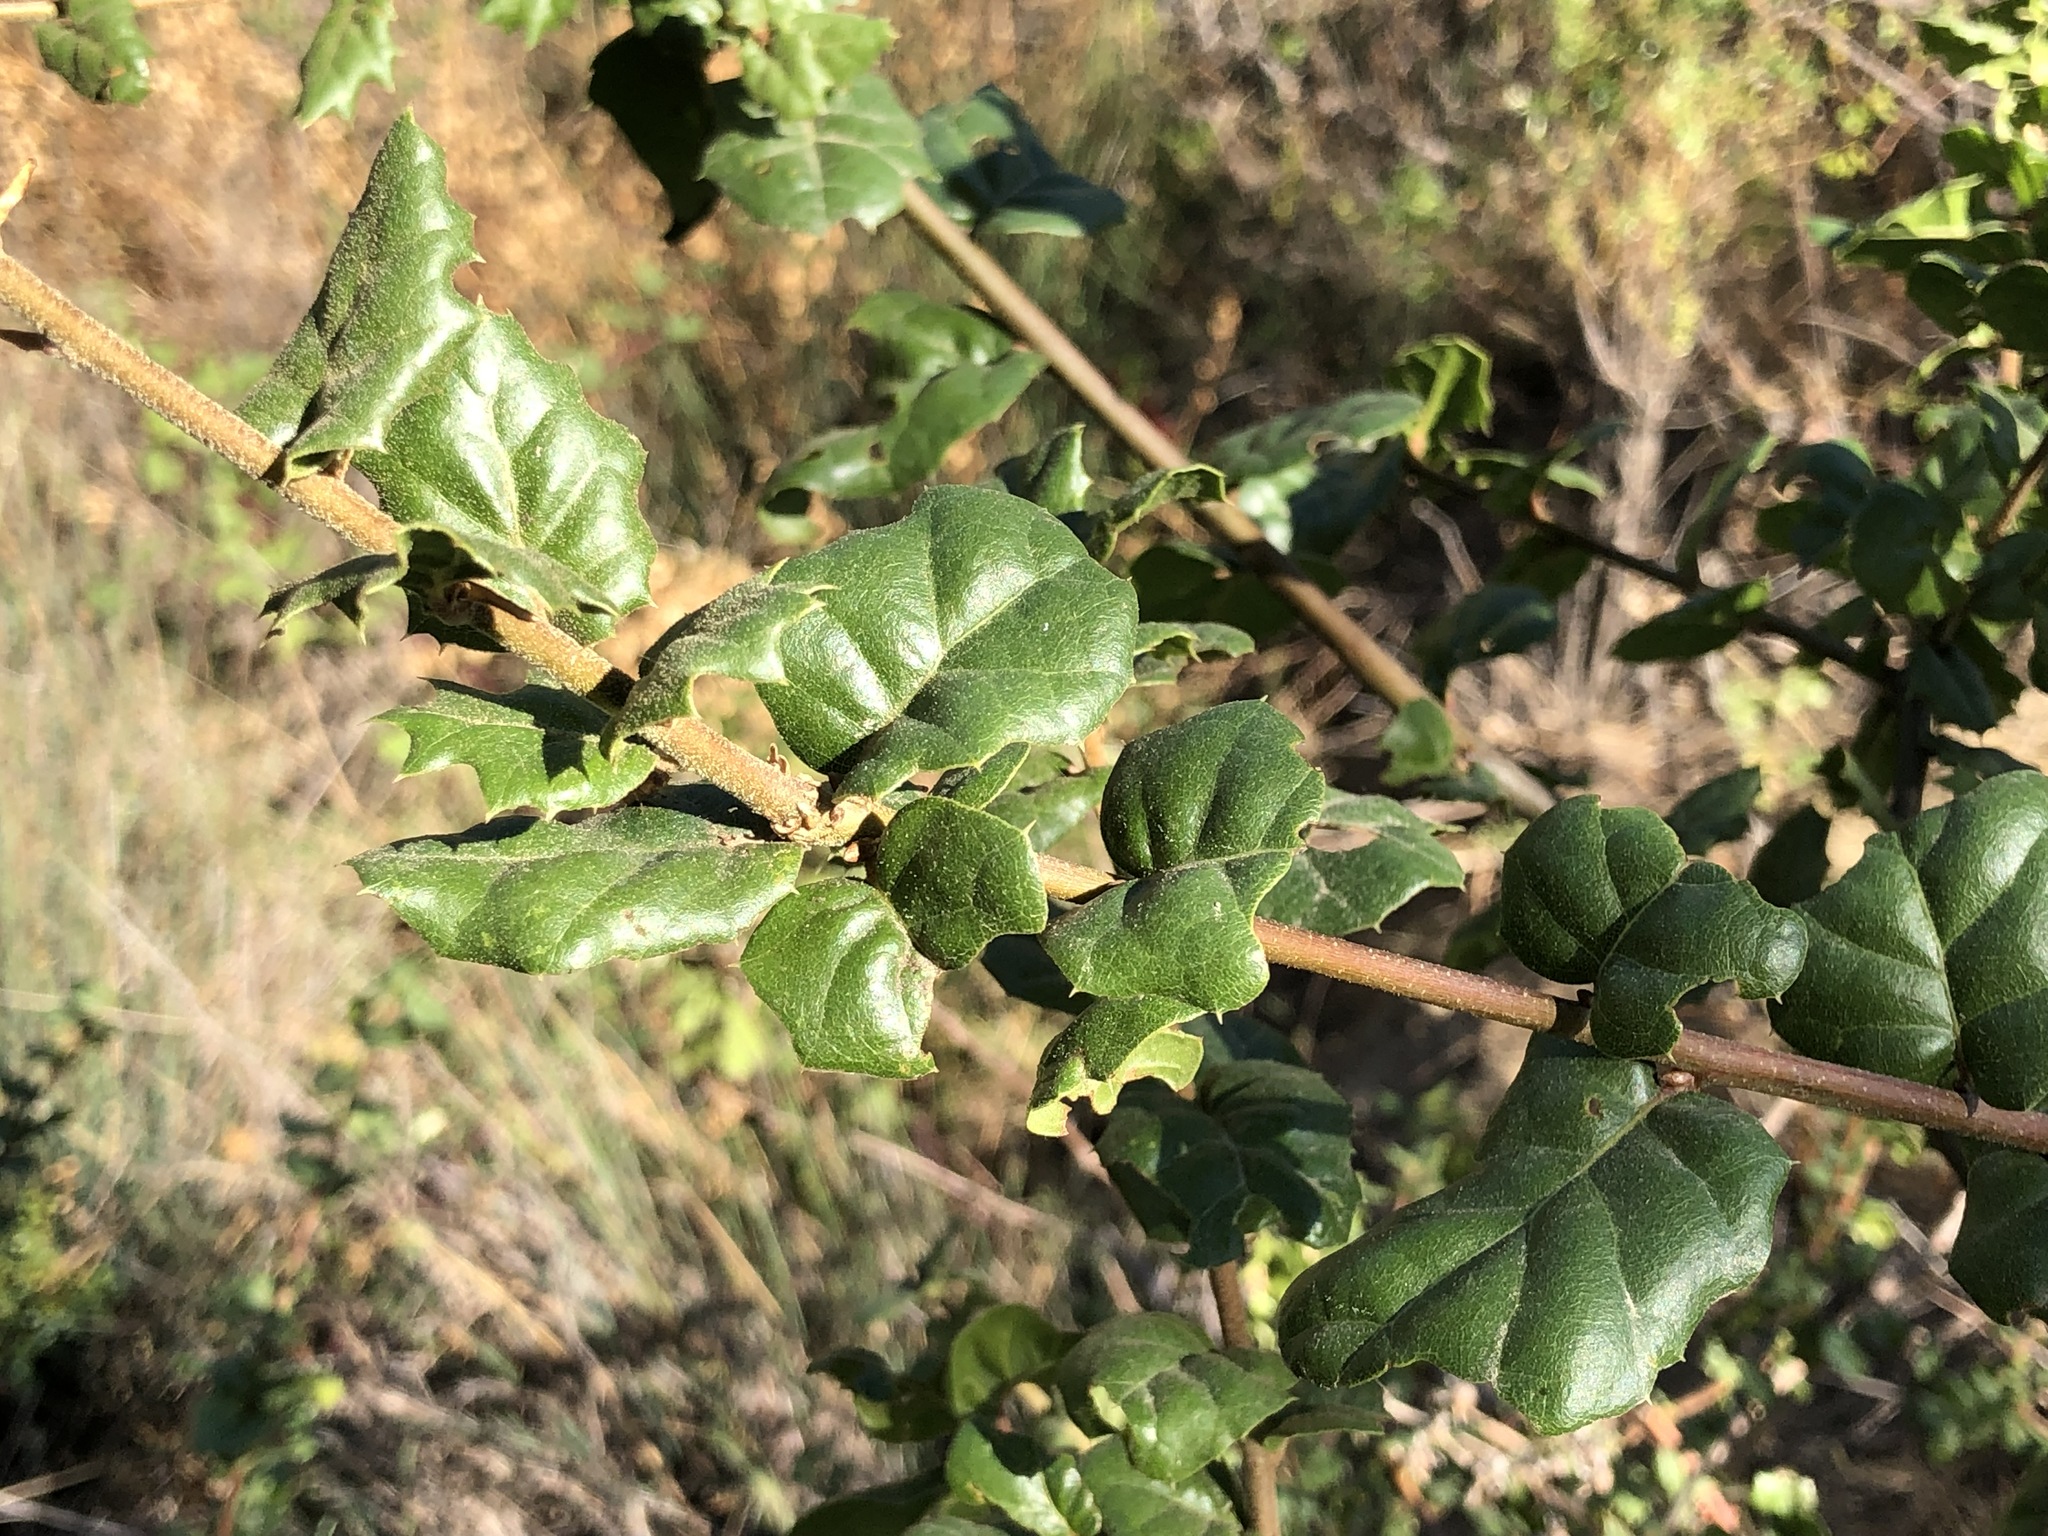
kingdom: Plantae
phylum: Tracheophyta
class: Magnoliopsida
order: Fagales
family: Fagaceae
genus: Quercus
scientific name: Quercus agrifolia
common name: California live oak
